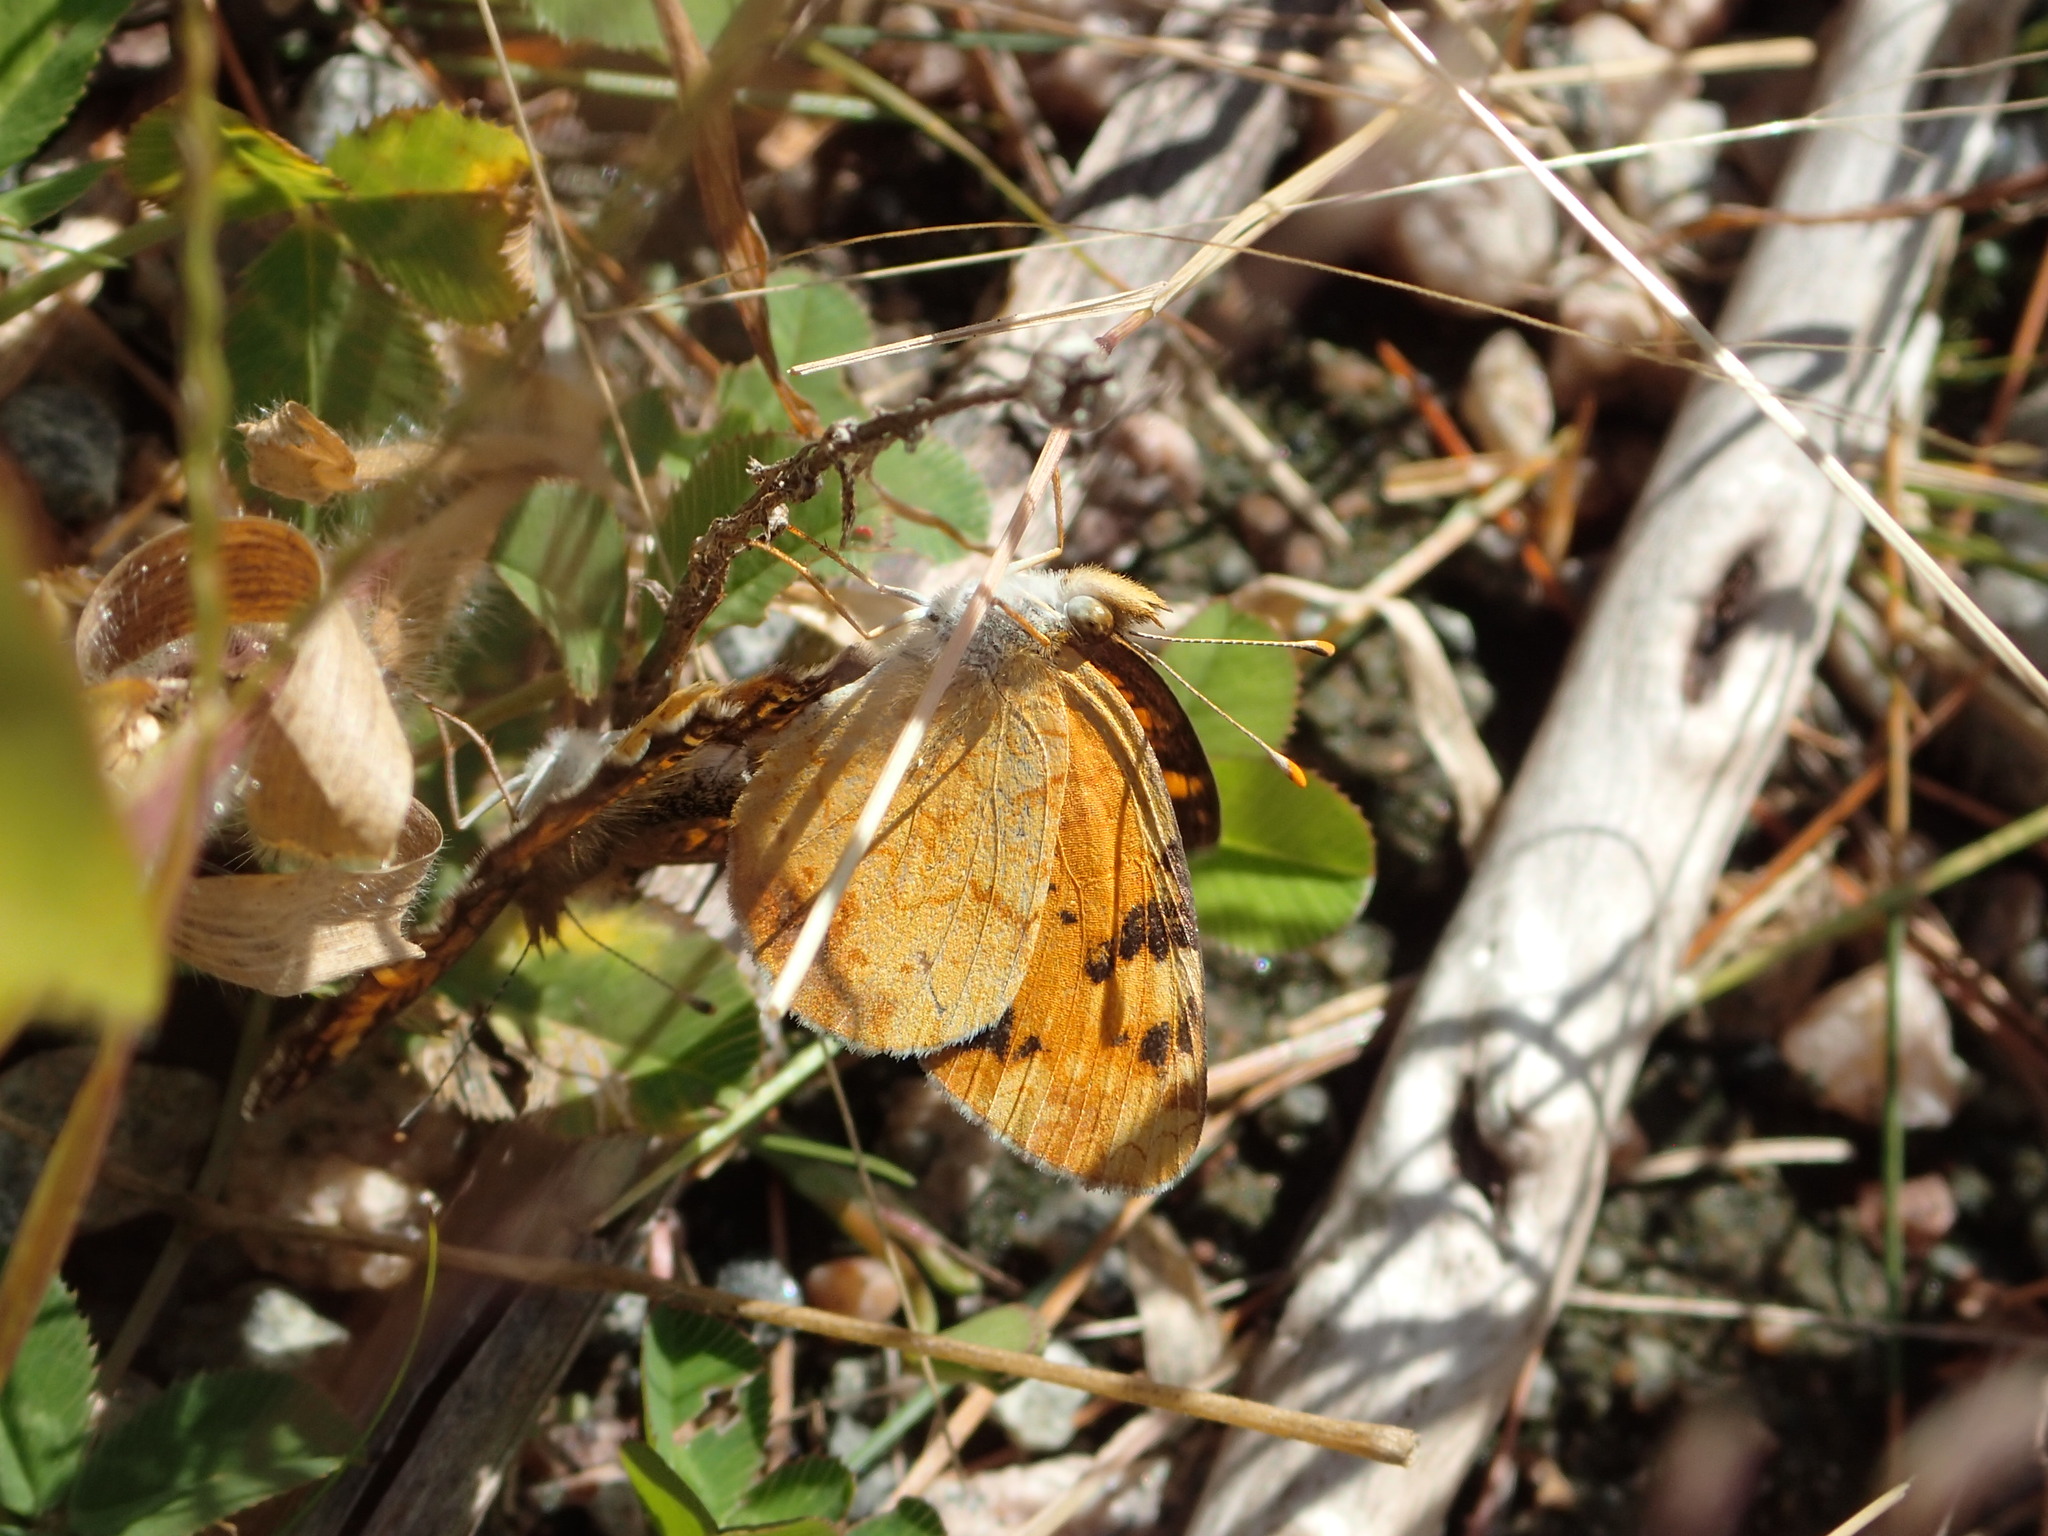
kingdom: Animalia
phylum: Arthropoda
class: Insecta
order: Lepidoptera
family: Nymphalidae
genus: Phyciodes
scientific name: Phyciodes tharos
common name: Pearl crescent
